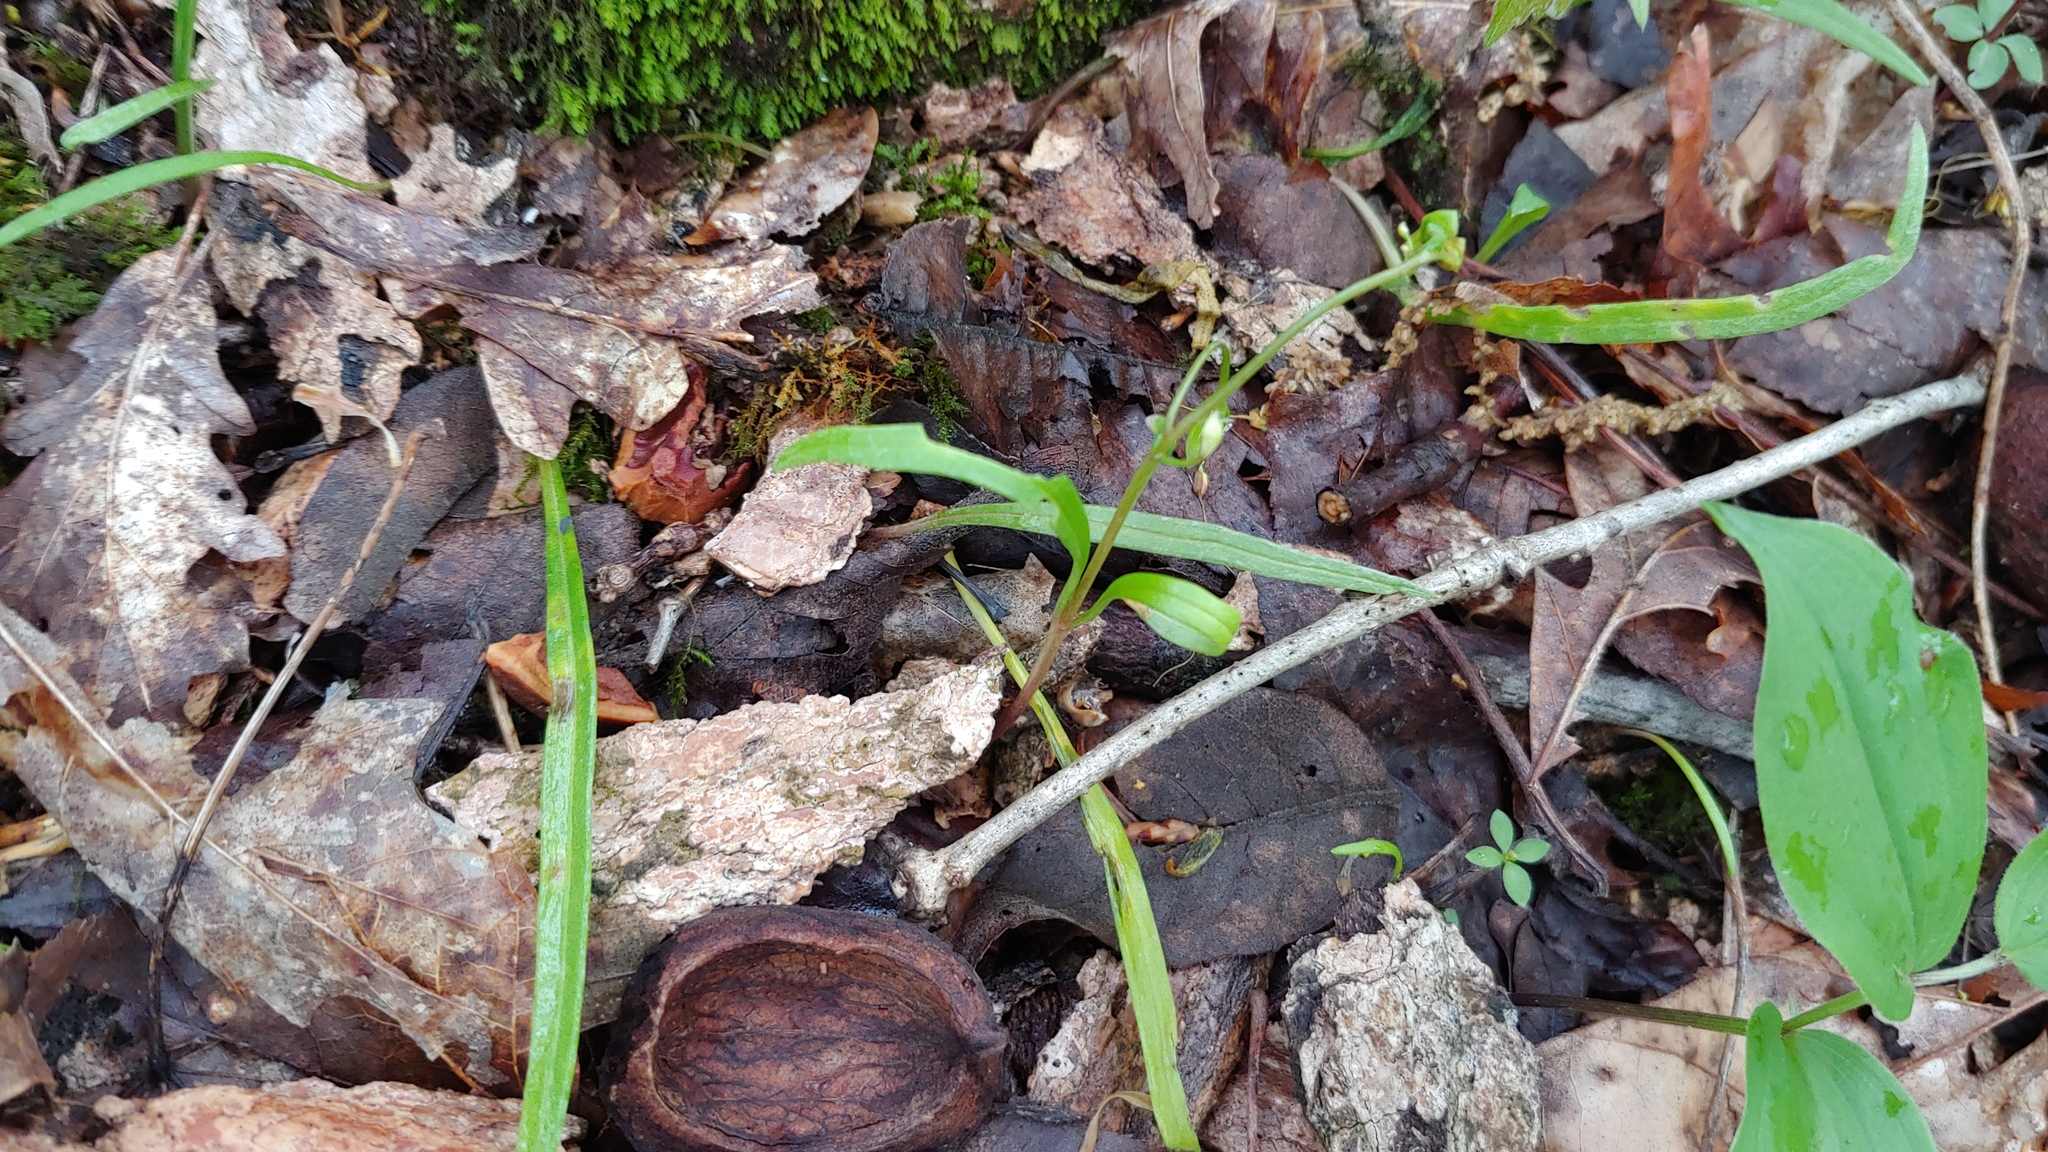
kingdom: Plantae
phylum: Tracheophyta
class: Magnoliopsida
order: Caryophyllales
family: Montiaceae
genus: Claytonia
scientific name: Claytonia virginica
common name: Virginia springbeauty
